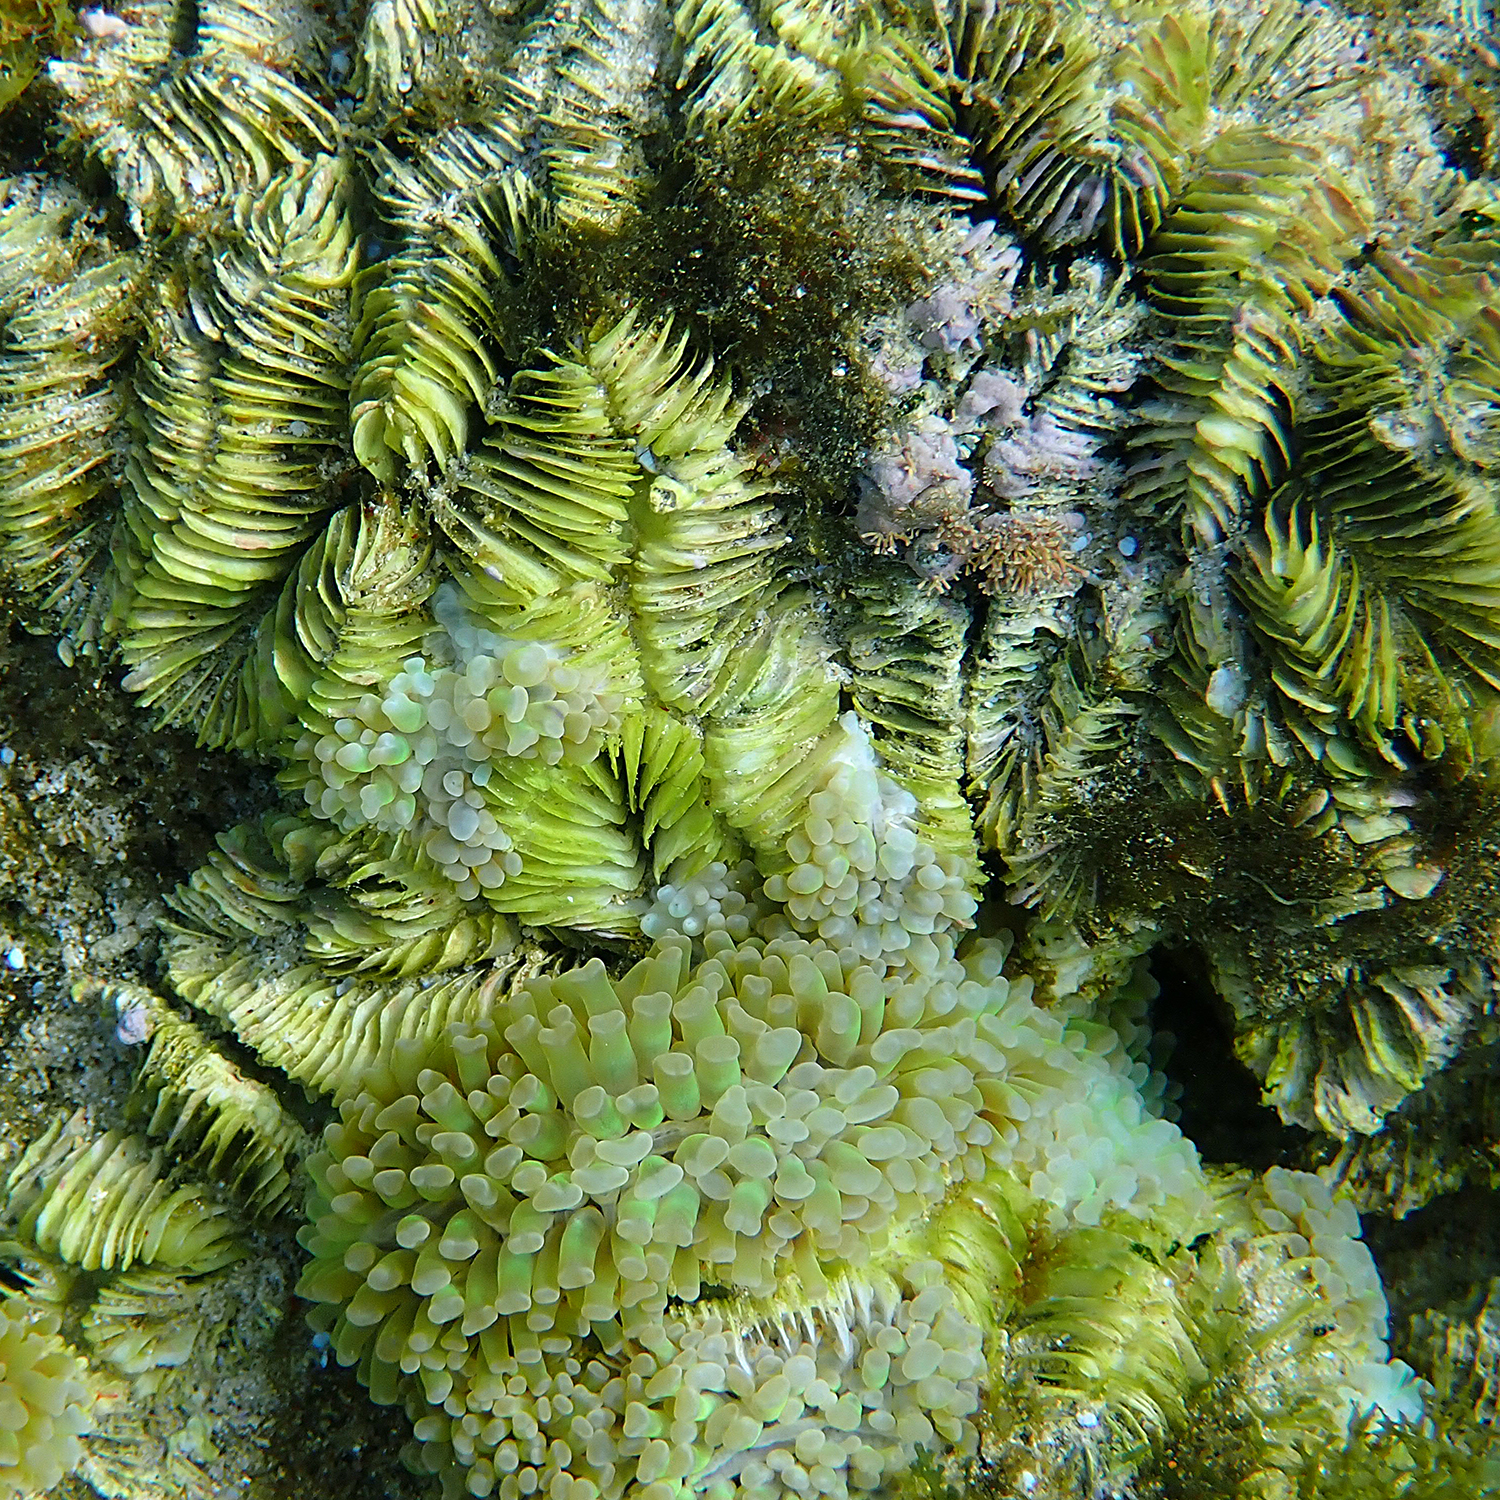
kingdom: Animalia
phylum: Cnidaria
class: Anthozoa
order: Scleractinia
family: Euphylliidae
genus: Fimbriaphyllia
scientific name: Fimbriaphyllia ancora
